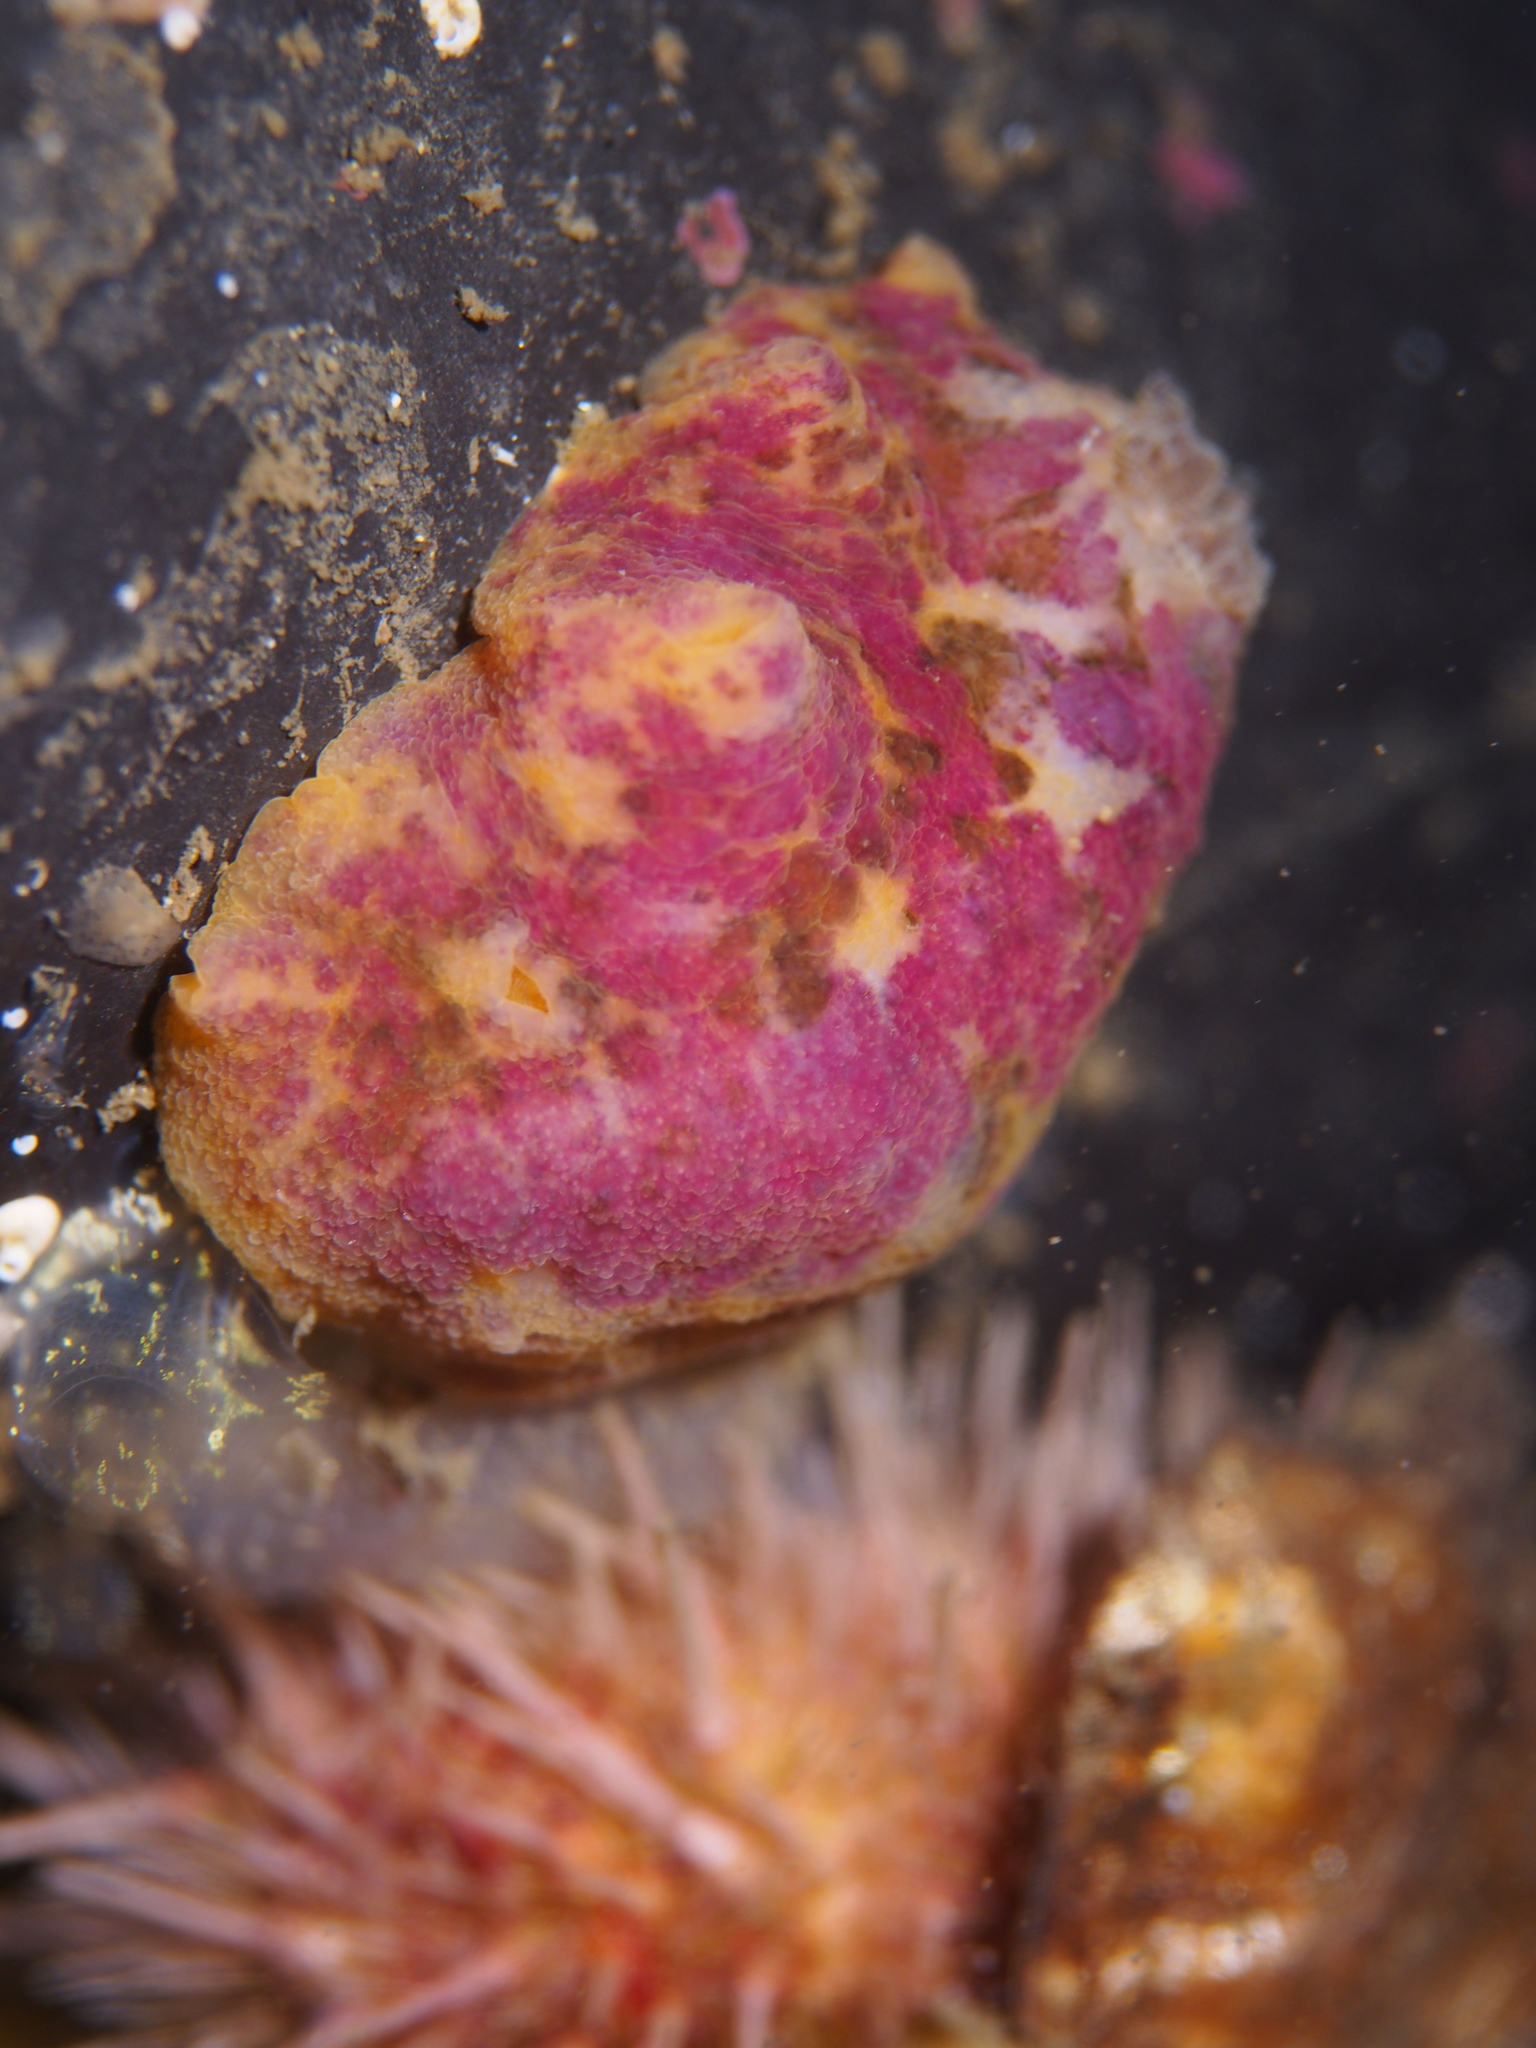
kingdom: Animalia
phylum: Mollusca
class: Gastropoda
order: Nudibranchia
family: Dorididae
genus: Doris
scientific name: Doris pseudoargus
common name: Sea lemon
